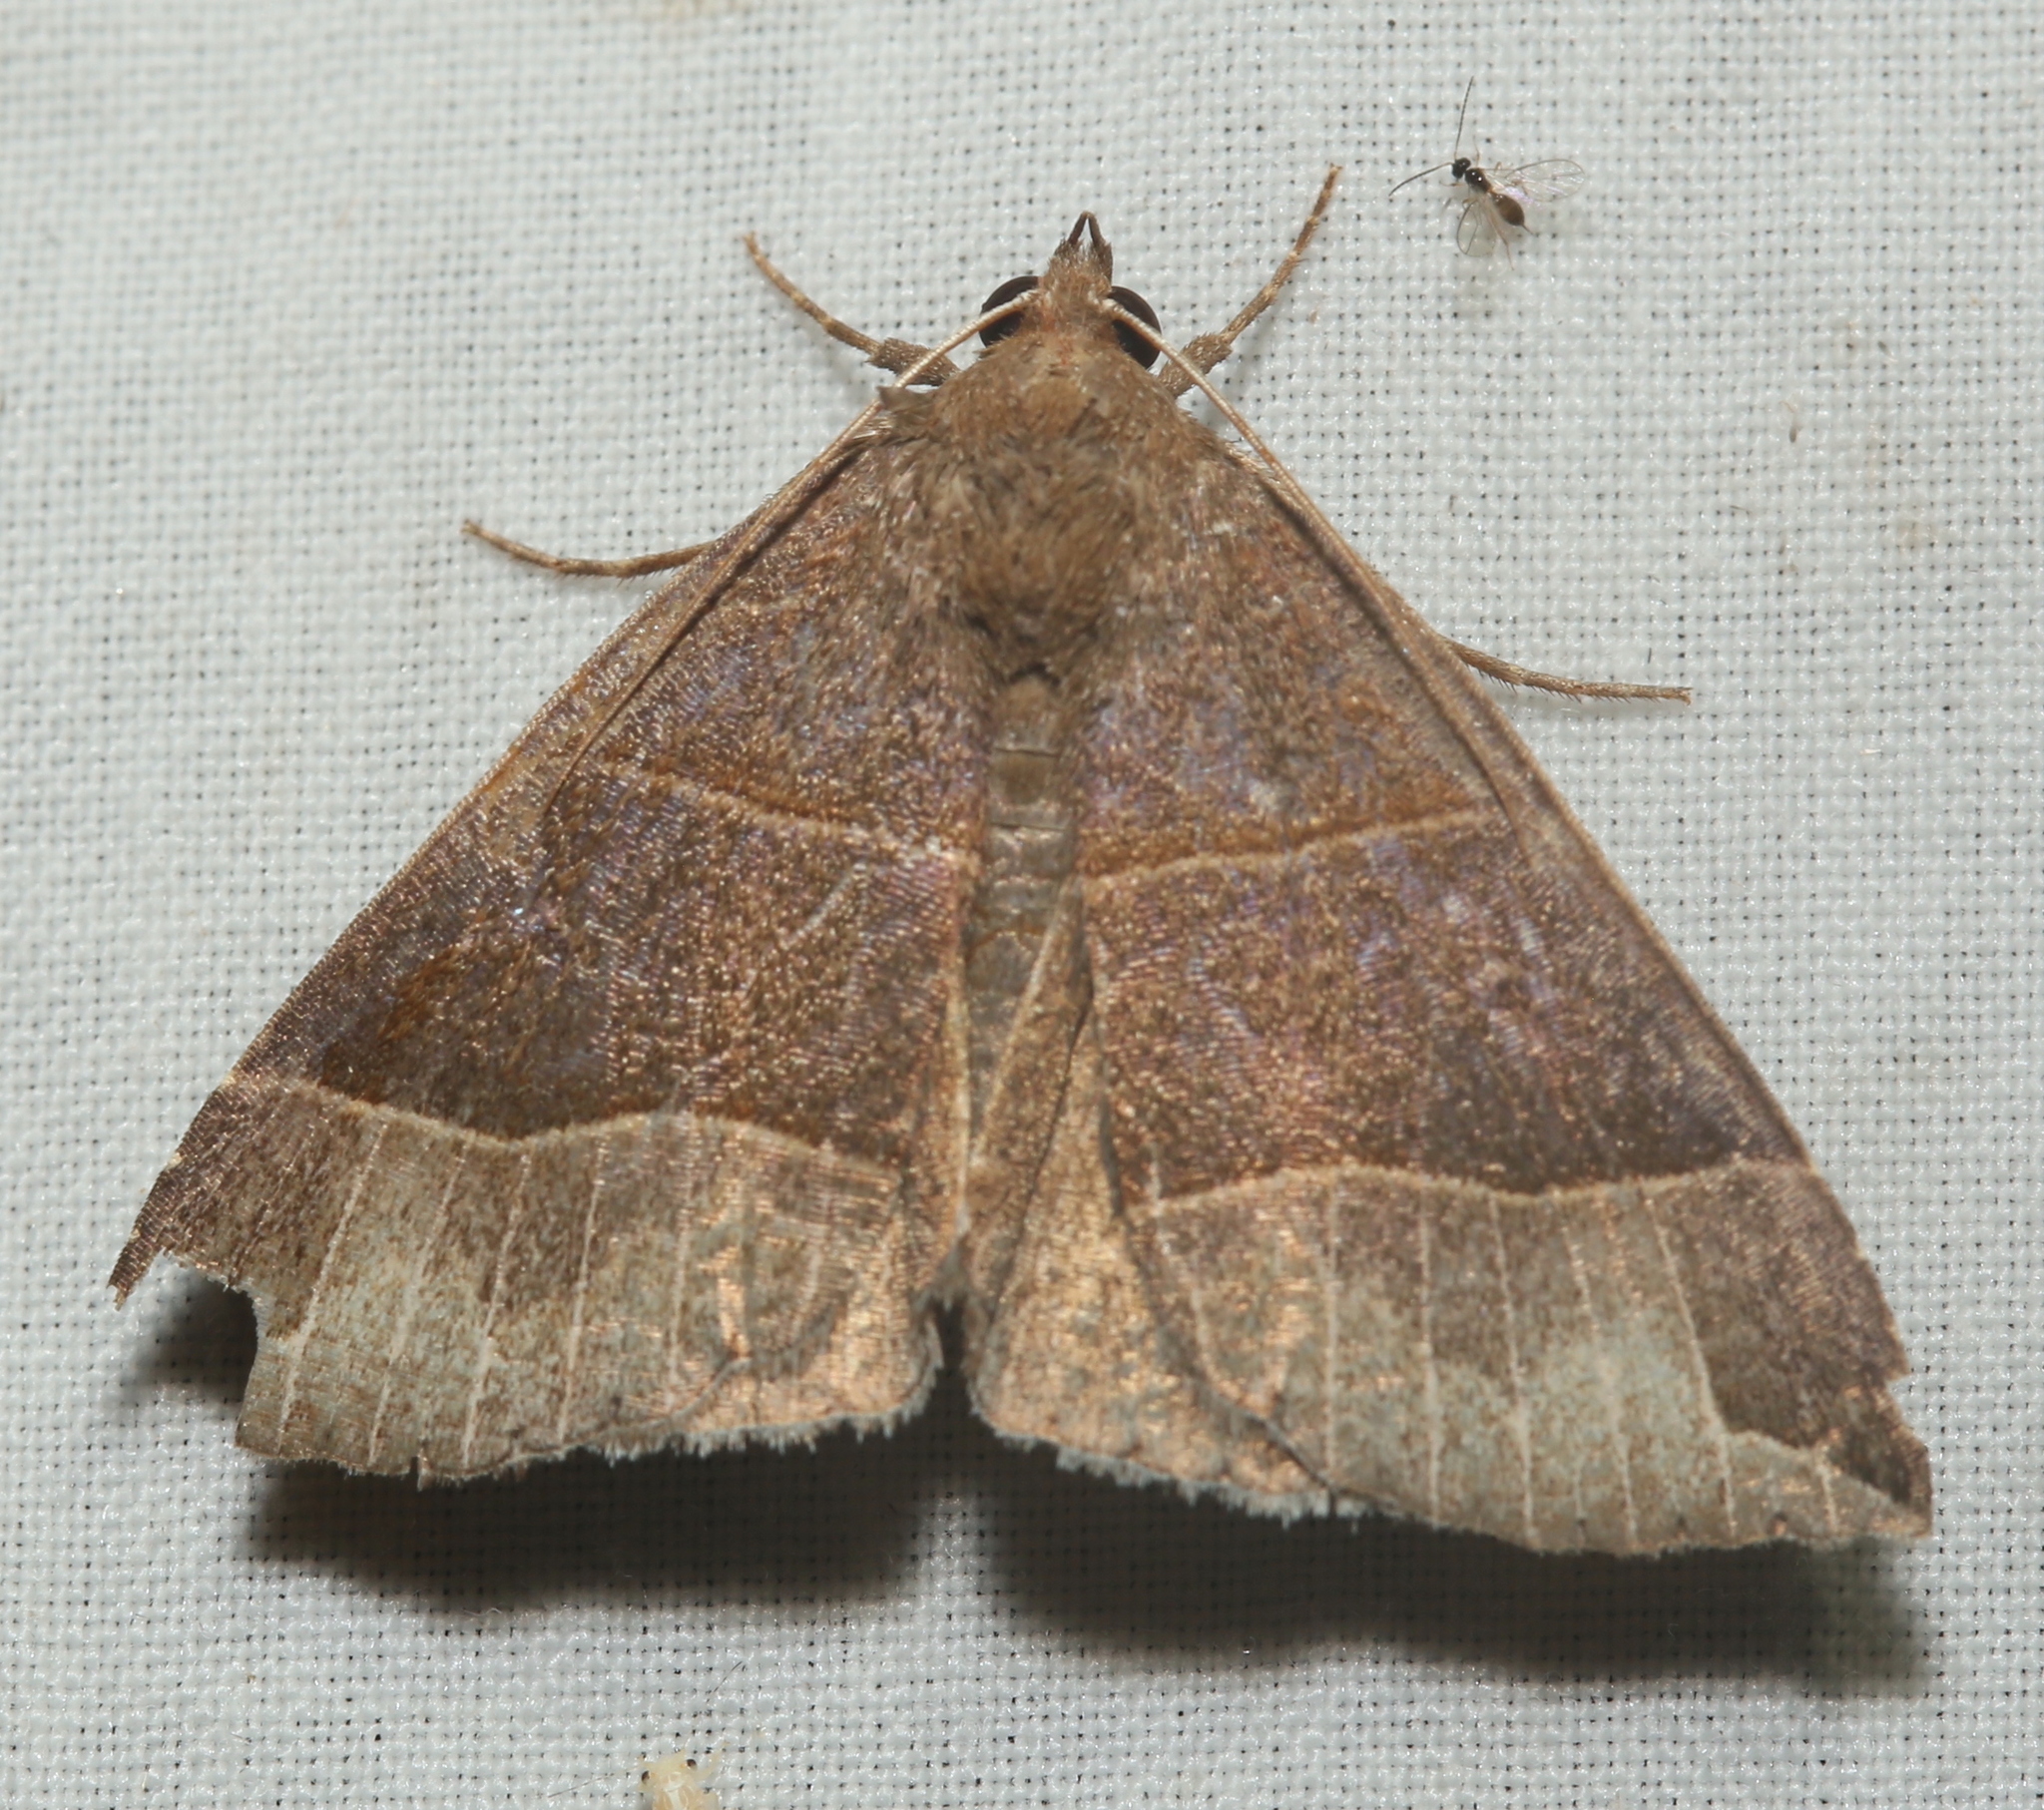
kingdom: Animalia
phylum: Arthropoda
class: Insecta
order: Lepidoptera
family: Erebidae
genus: Parallelia
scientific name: Parallelia bistriaris
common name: Maple looper moth
